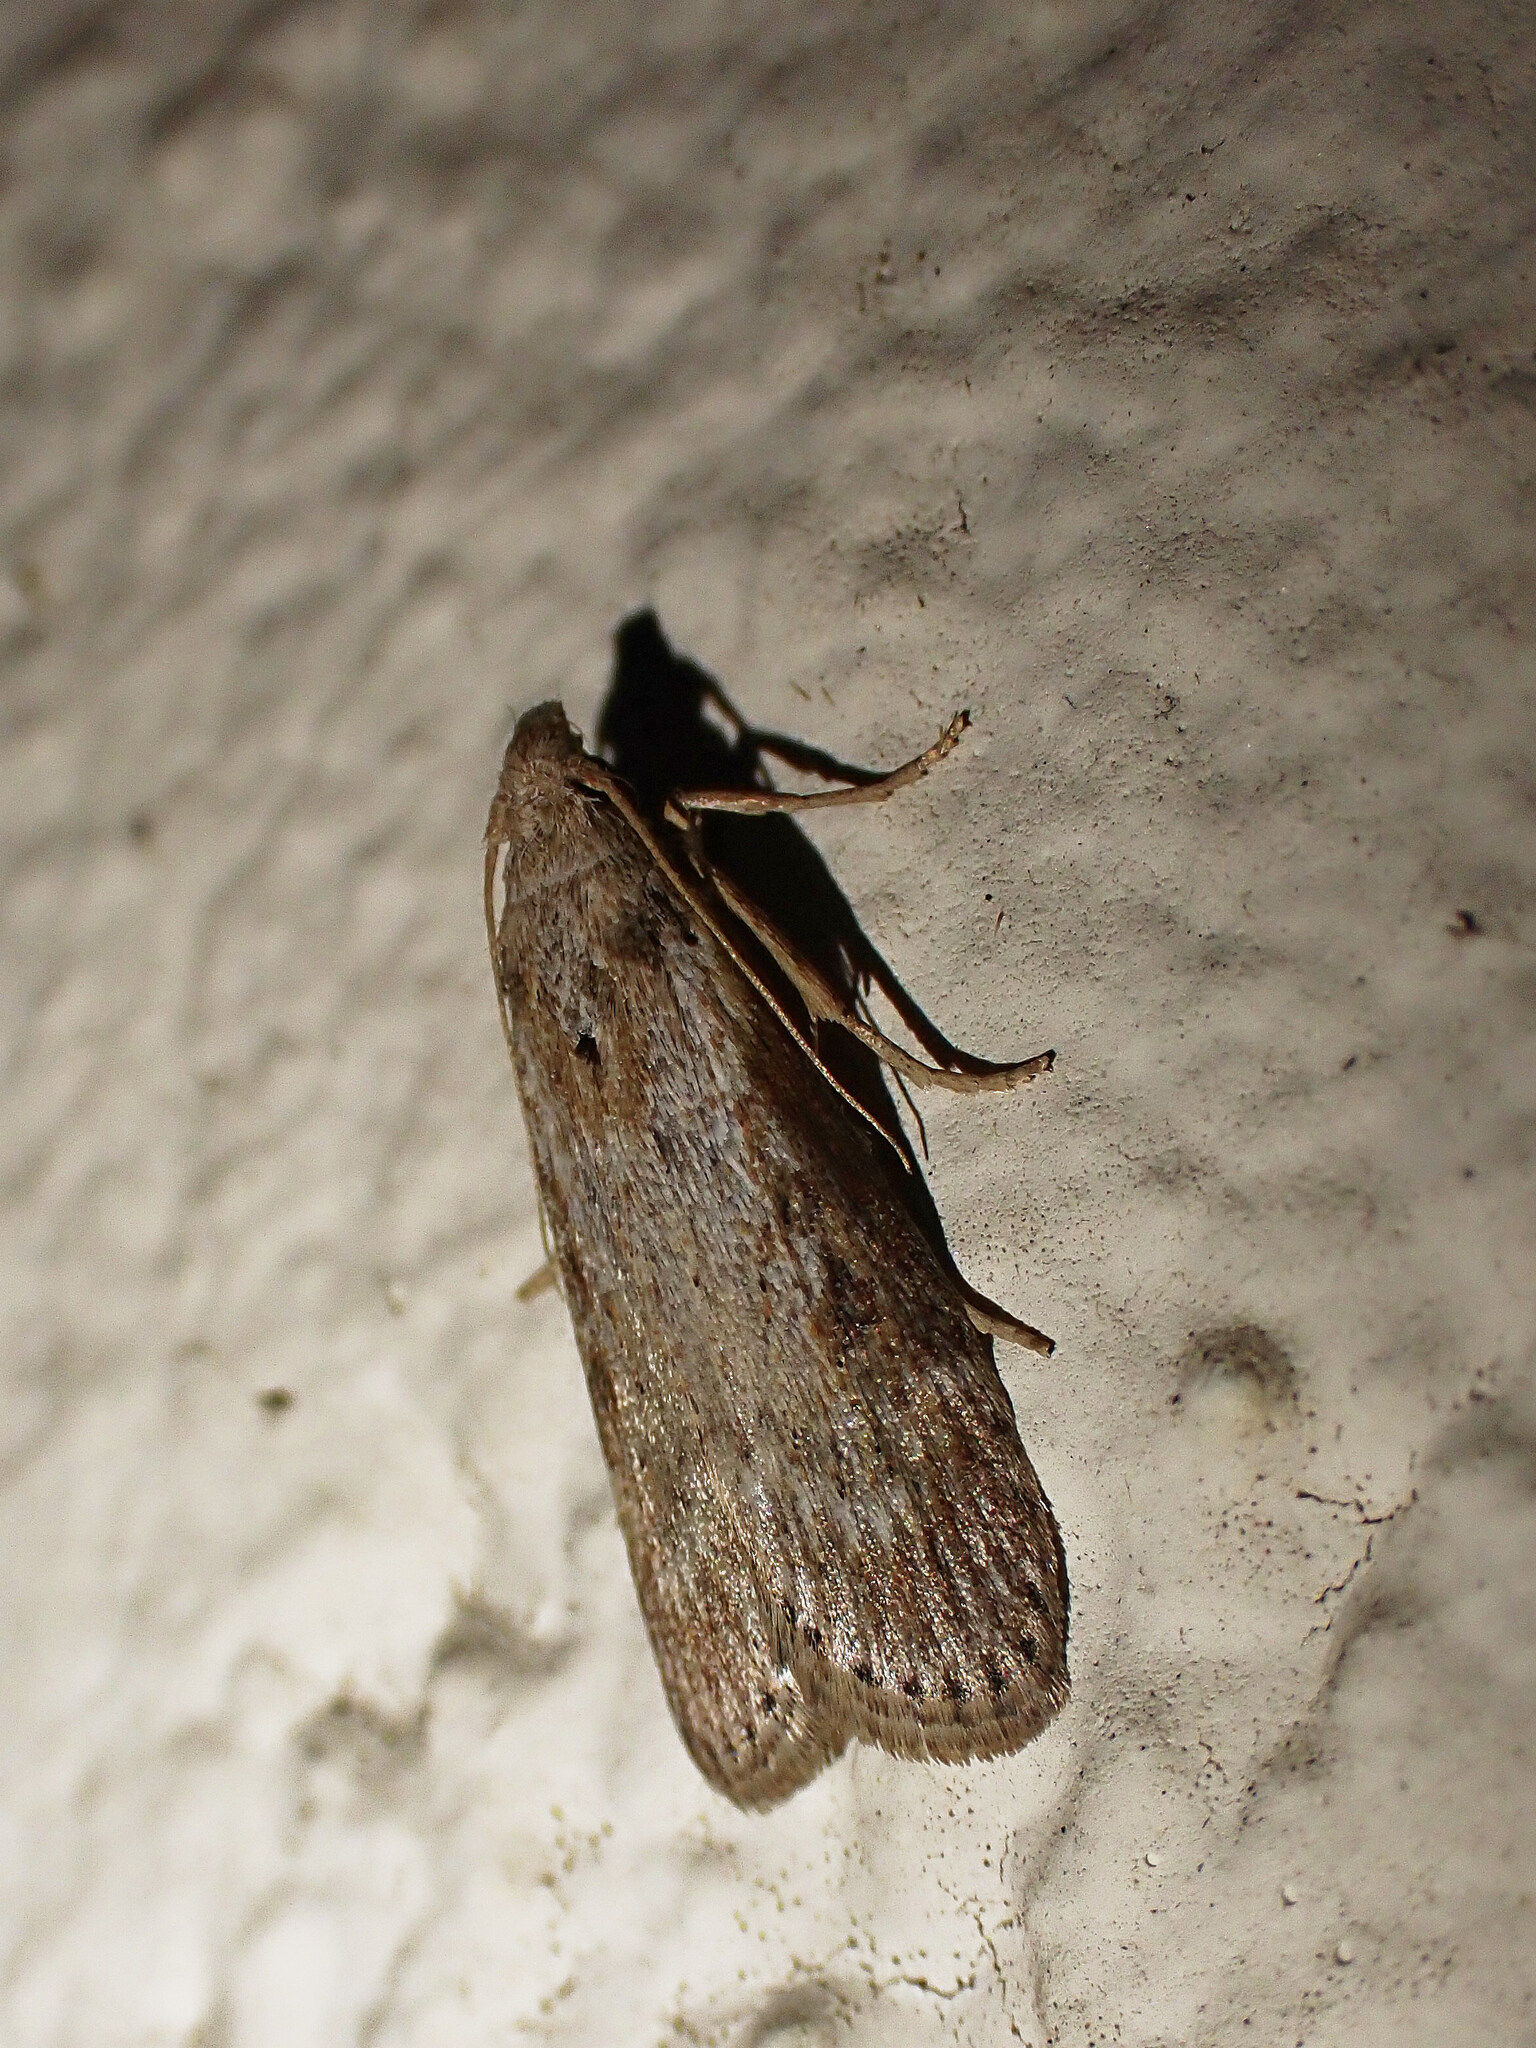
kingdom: Animalia
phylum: Arthropoda
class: Insecta
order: Lepidoptera
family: Pyralidae
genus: Lamoria
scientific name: Lamoria anella
